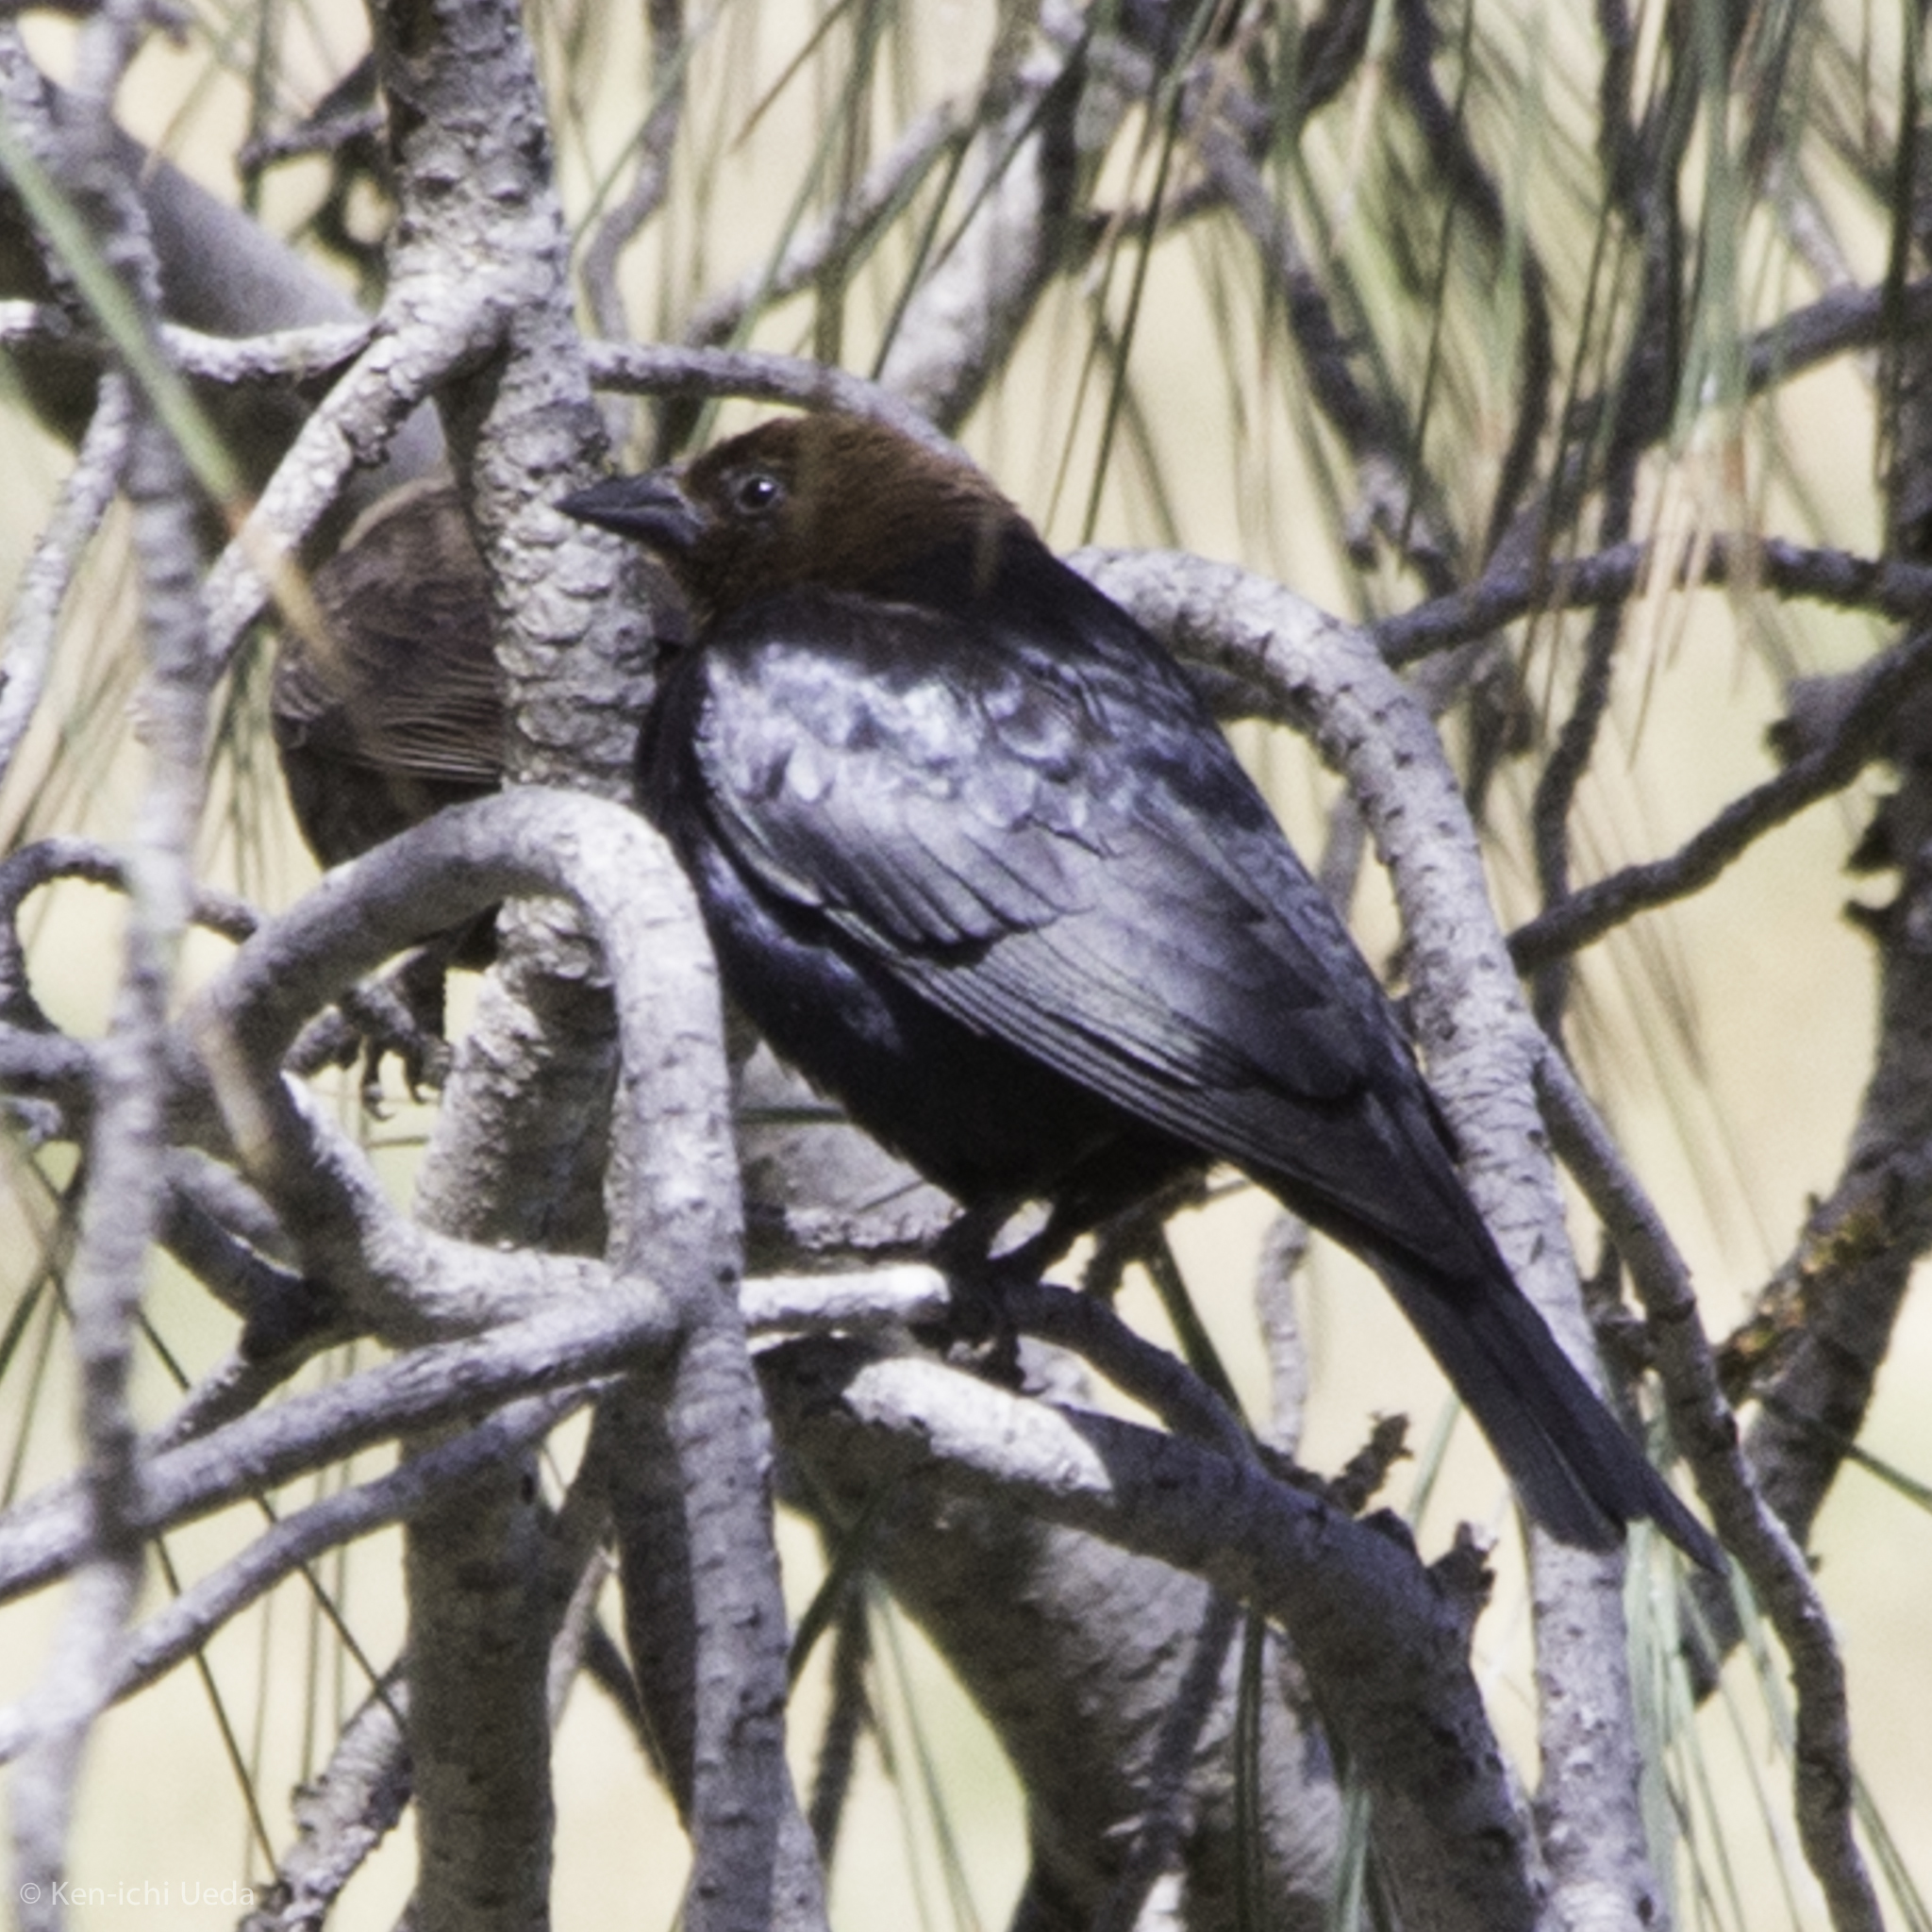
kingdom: Animalia
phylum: Chordata
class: Aves
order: Passeriformes
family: Icteridae
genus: Molothrus
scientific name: Molothrus ater
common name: Brown-headed cowbird
